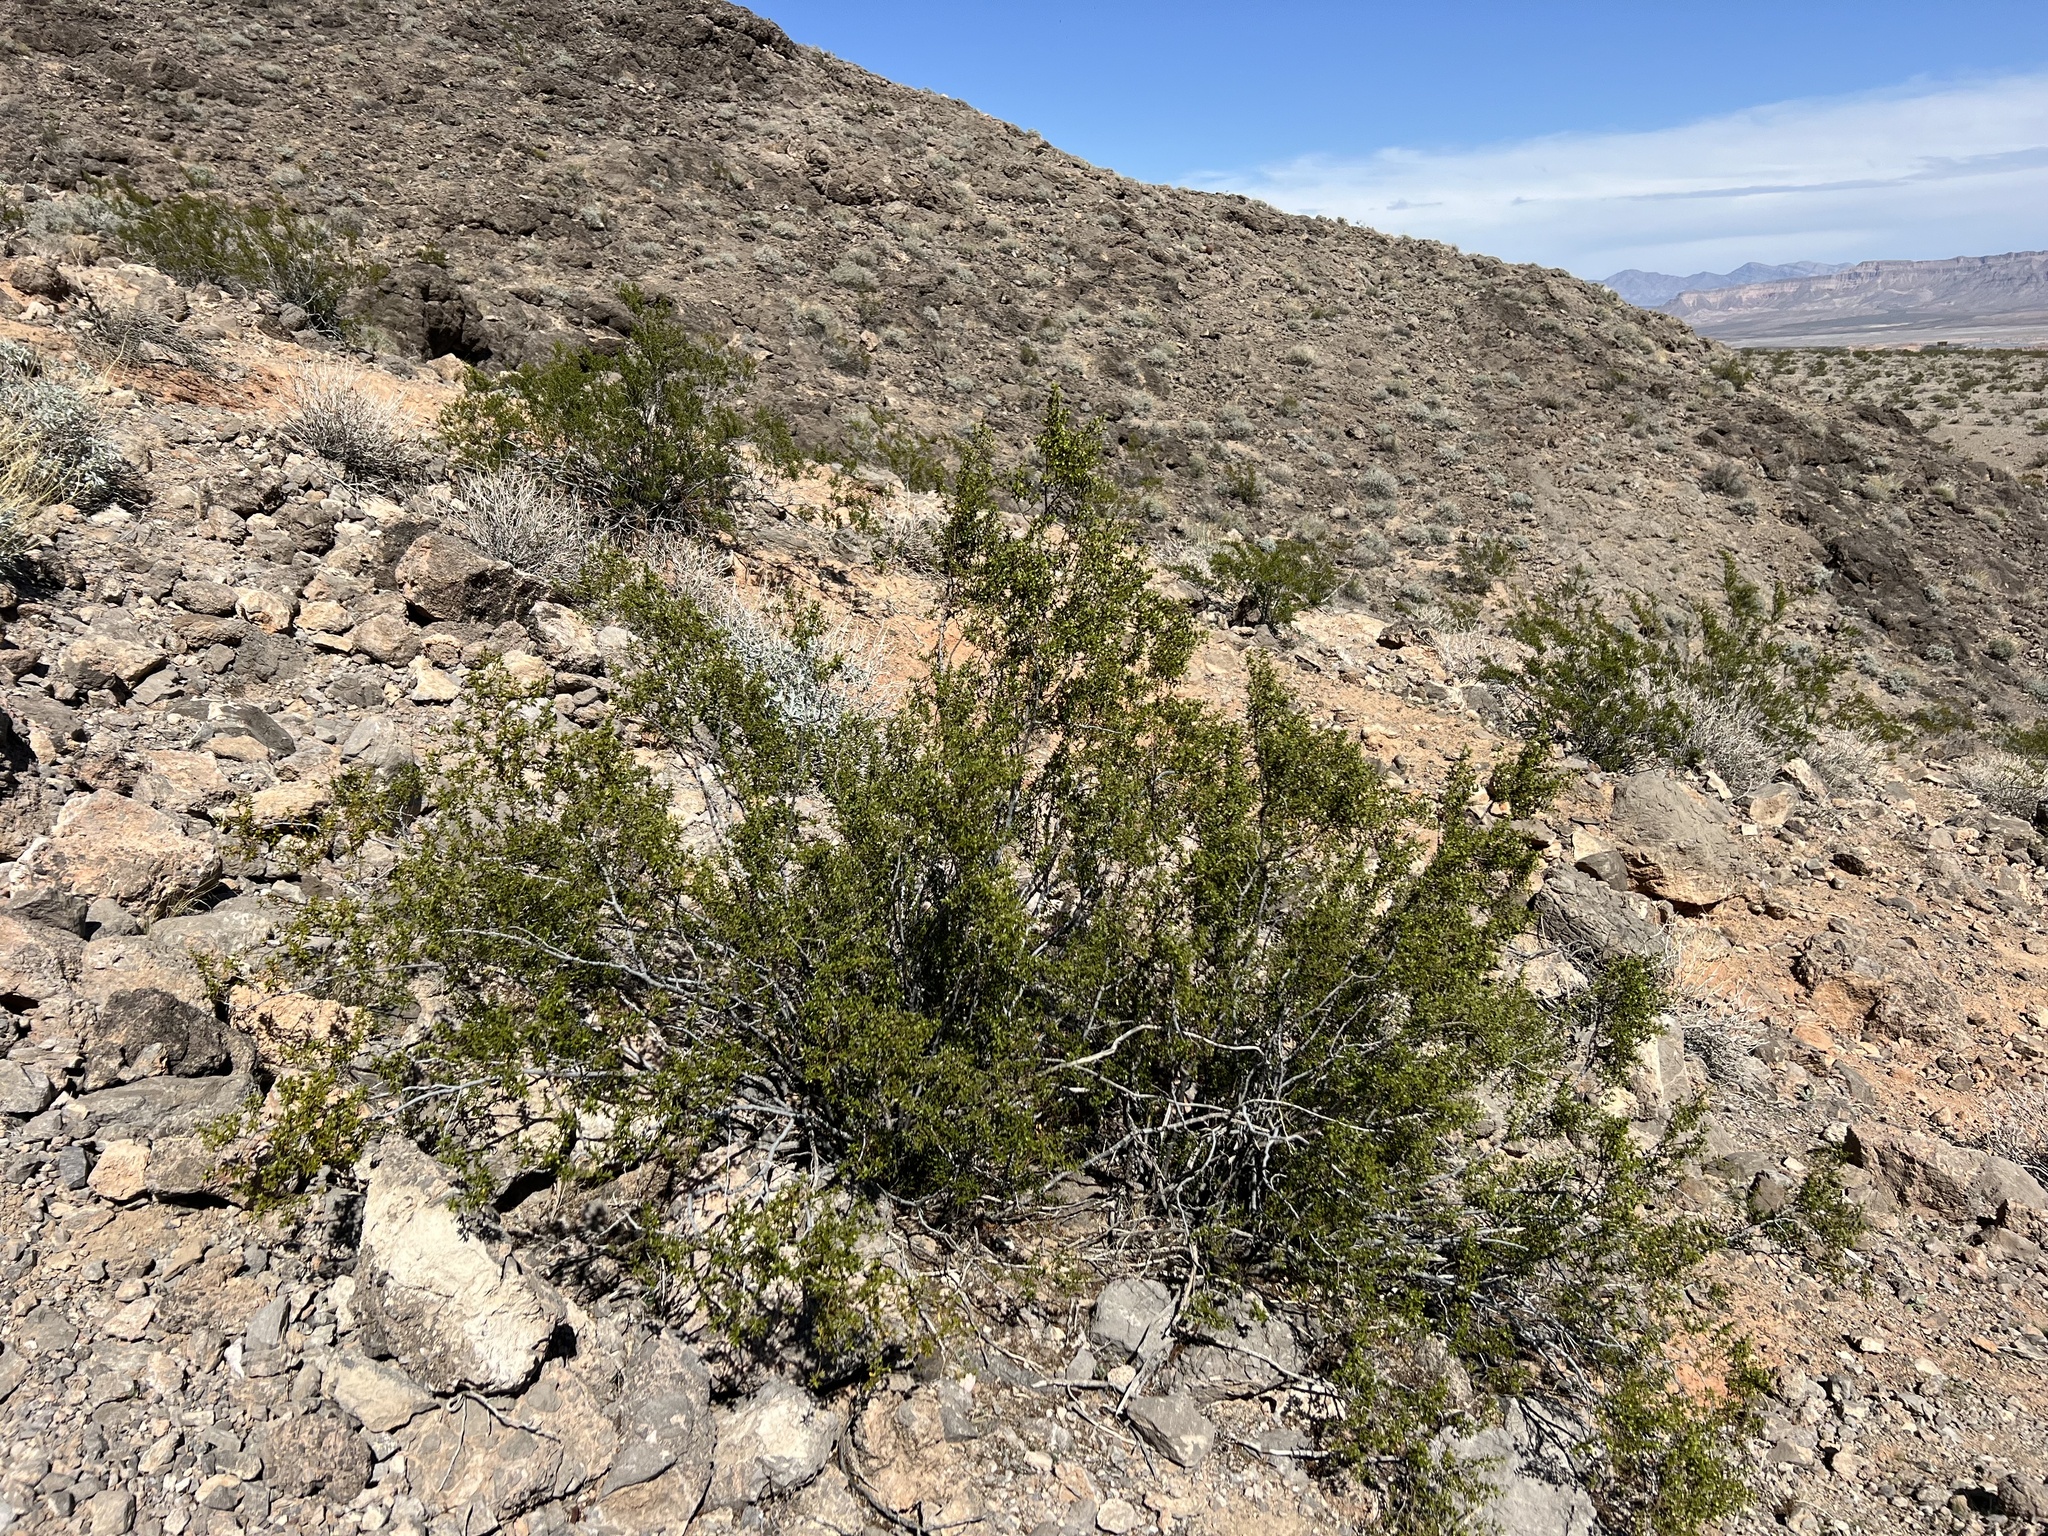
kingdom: Plantae
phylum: Tracheophyta
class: Magnoliopsida
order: Zygophyllales
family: Zygophyllaceae
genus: Larrea
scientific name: Larrea tridentata
